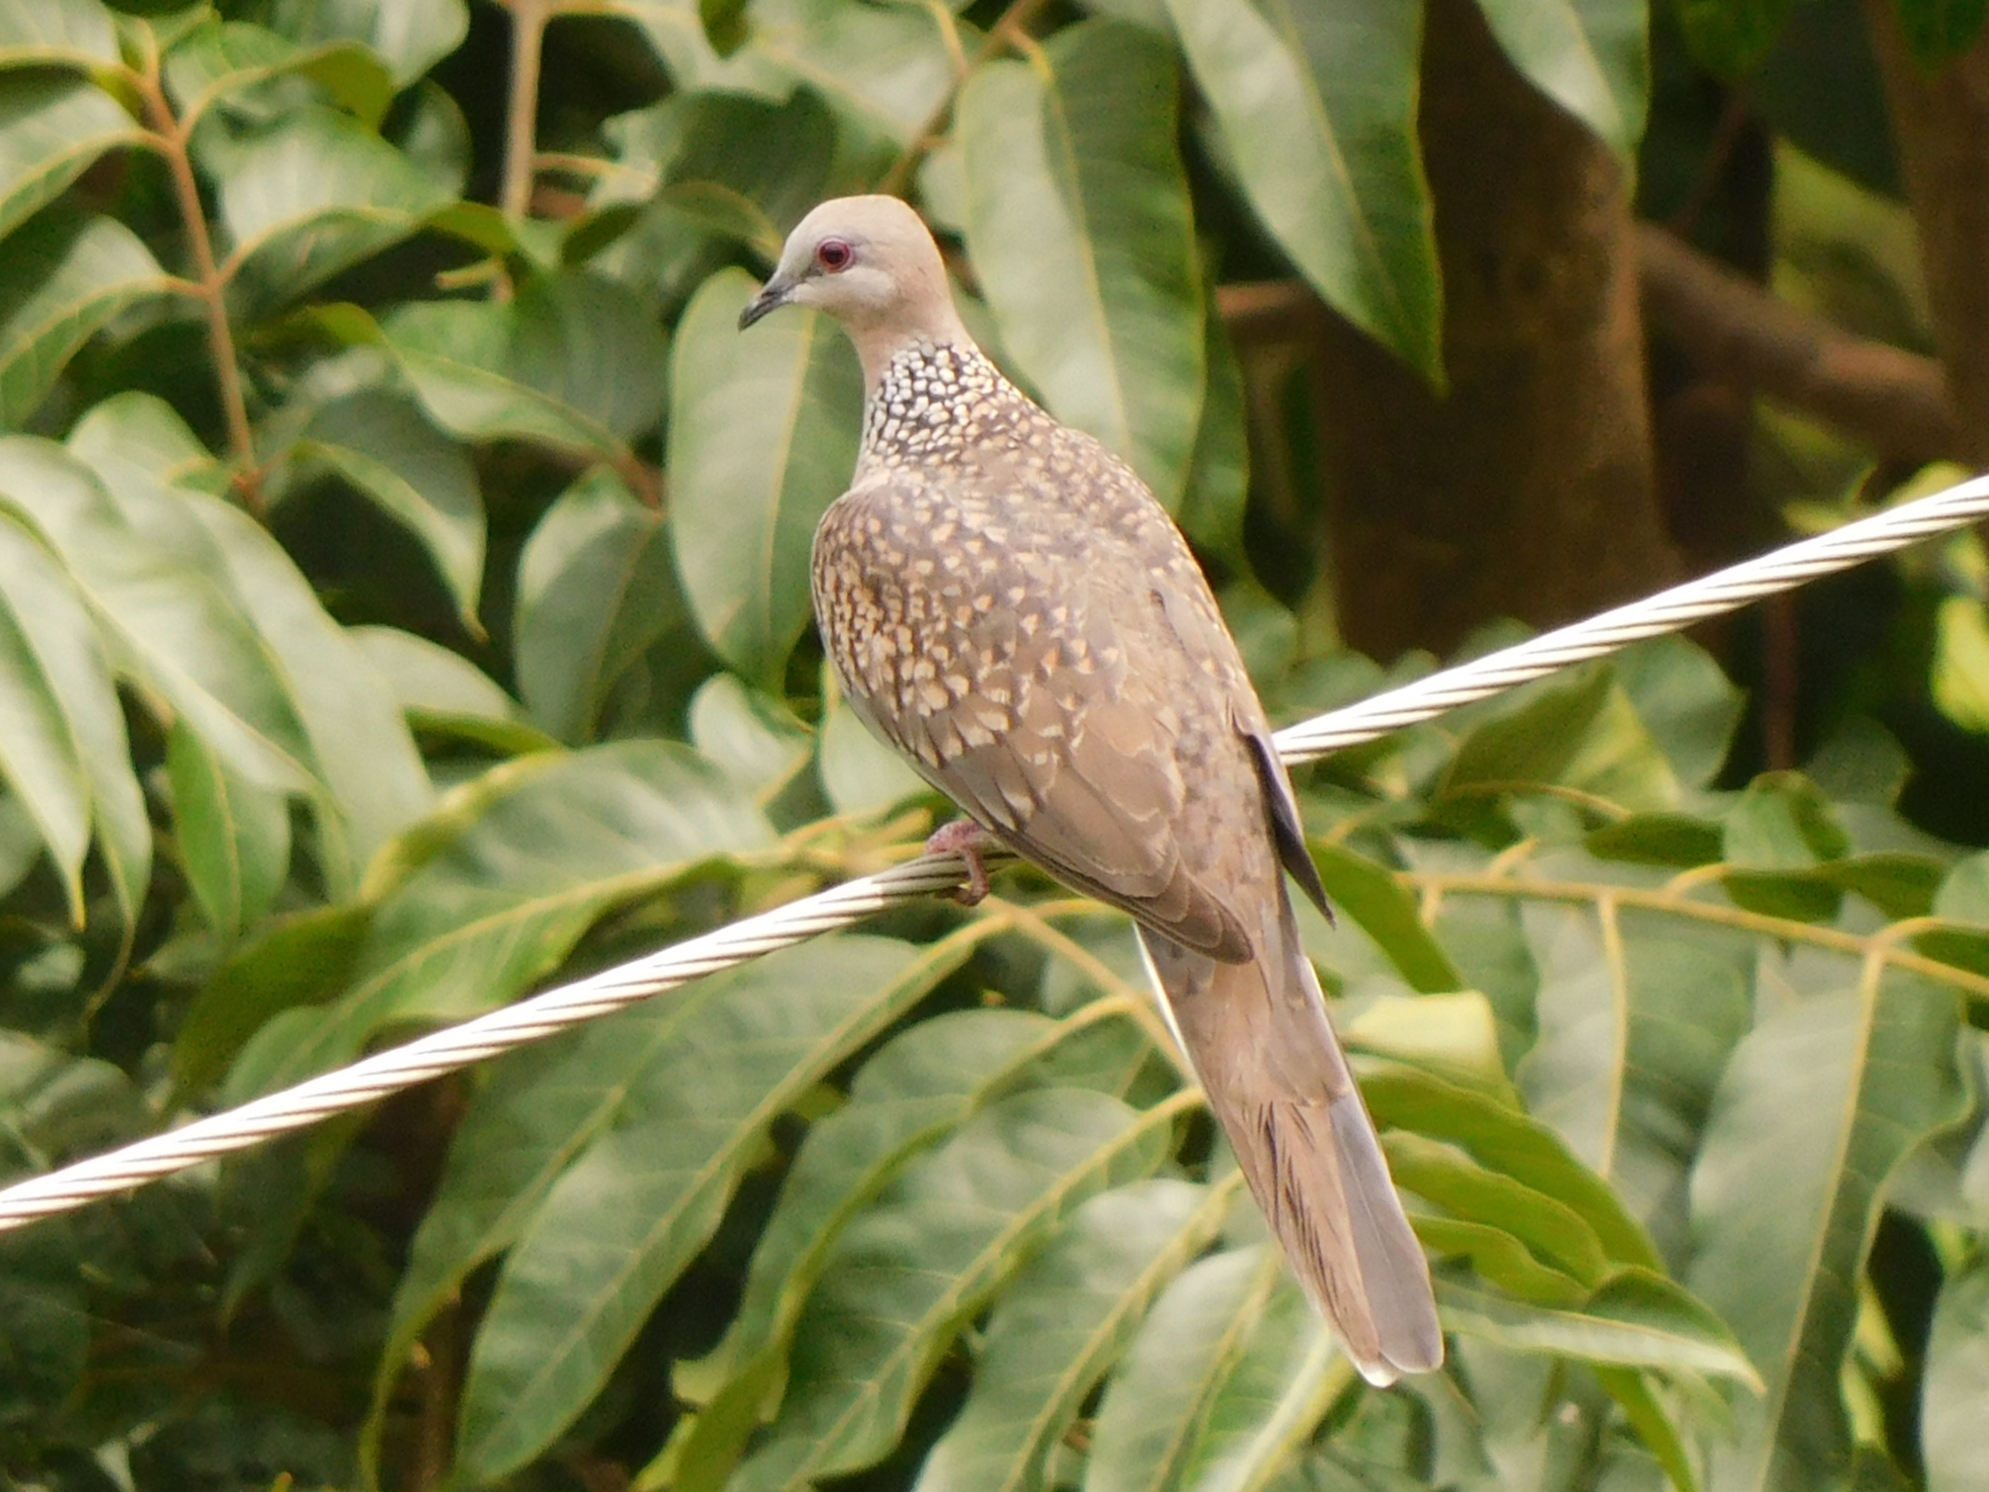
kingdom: Animalia
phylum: Chordata
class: Aves
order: Columbiformes
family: Columbidae
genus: Spilopelia
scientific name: Spilopelia chinensis
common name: Spotted dove
